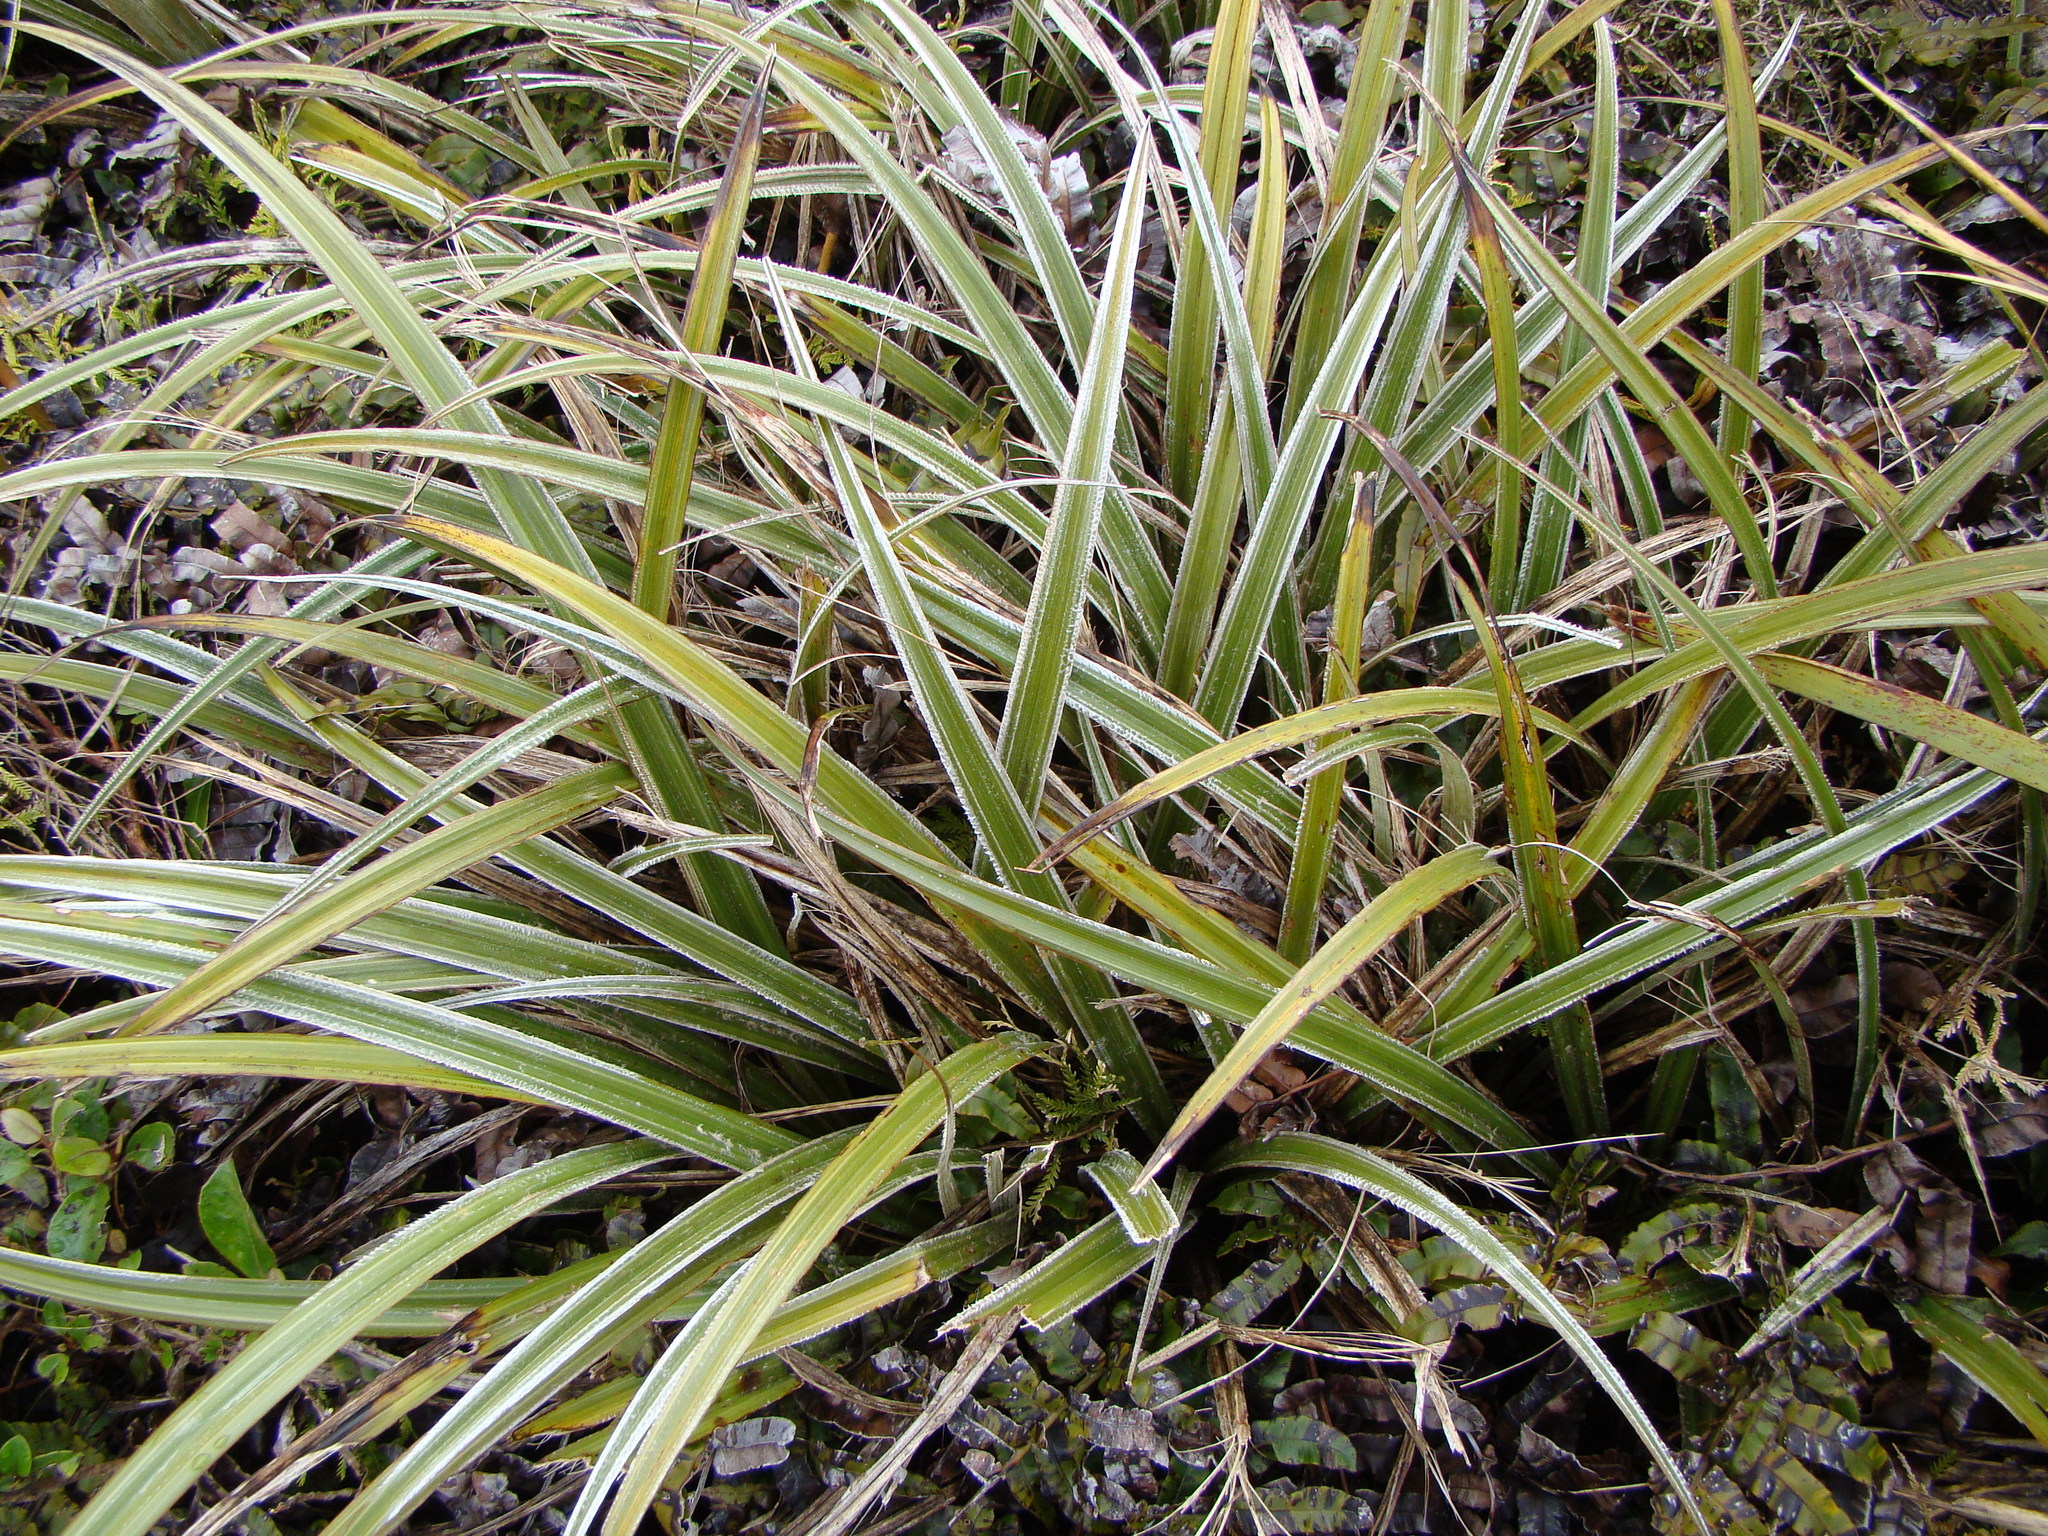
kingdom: Plantae
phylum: Tracheophyta
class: Liliopsida
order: Asparagales
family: Asteliaceae
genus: Astelia
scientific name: Astelia nervosa
